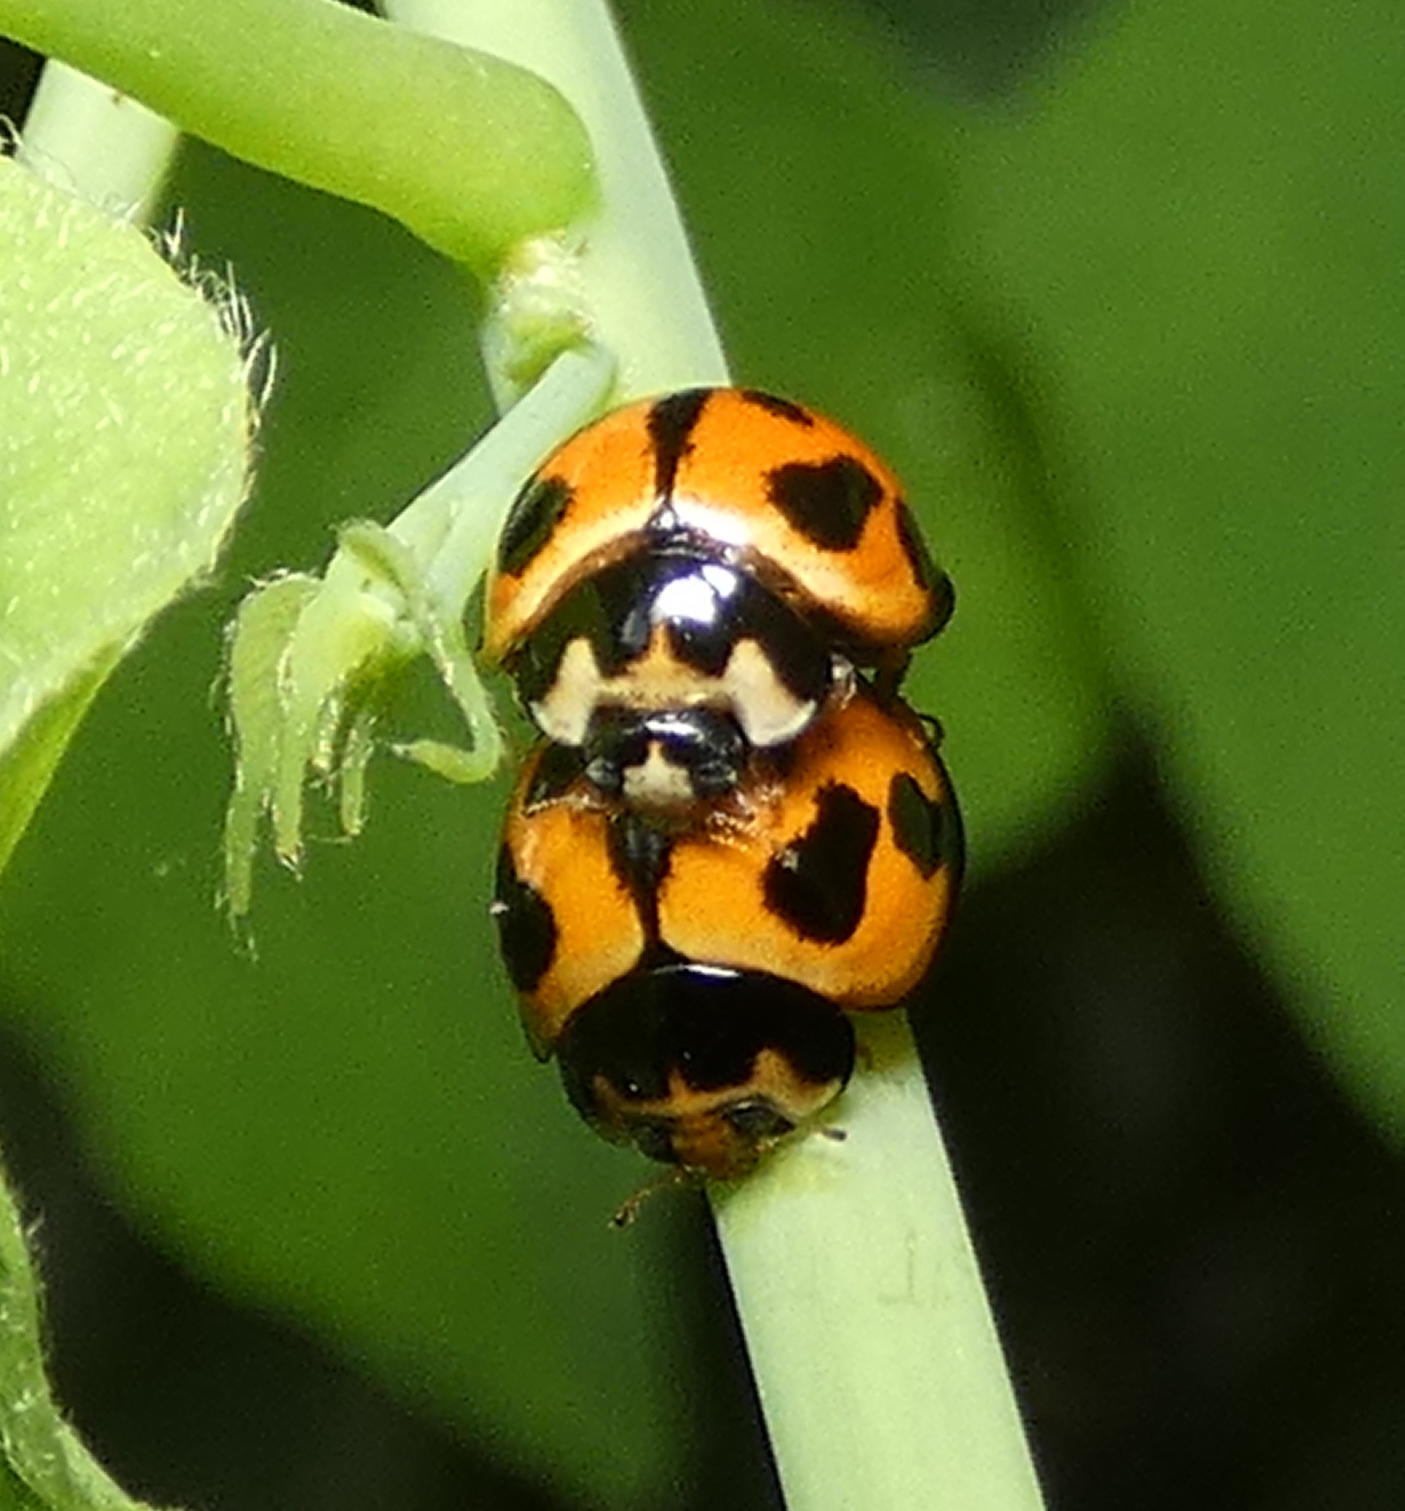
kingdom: Animalia
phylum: Arthropoda
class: Insecta
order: Coleoptera
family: Coccinellidae
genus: Coelophora
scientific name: Coelophora inaequalis
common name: Common australian lady beetle
